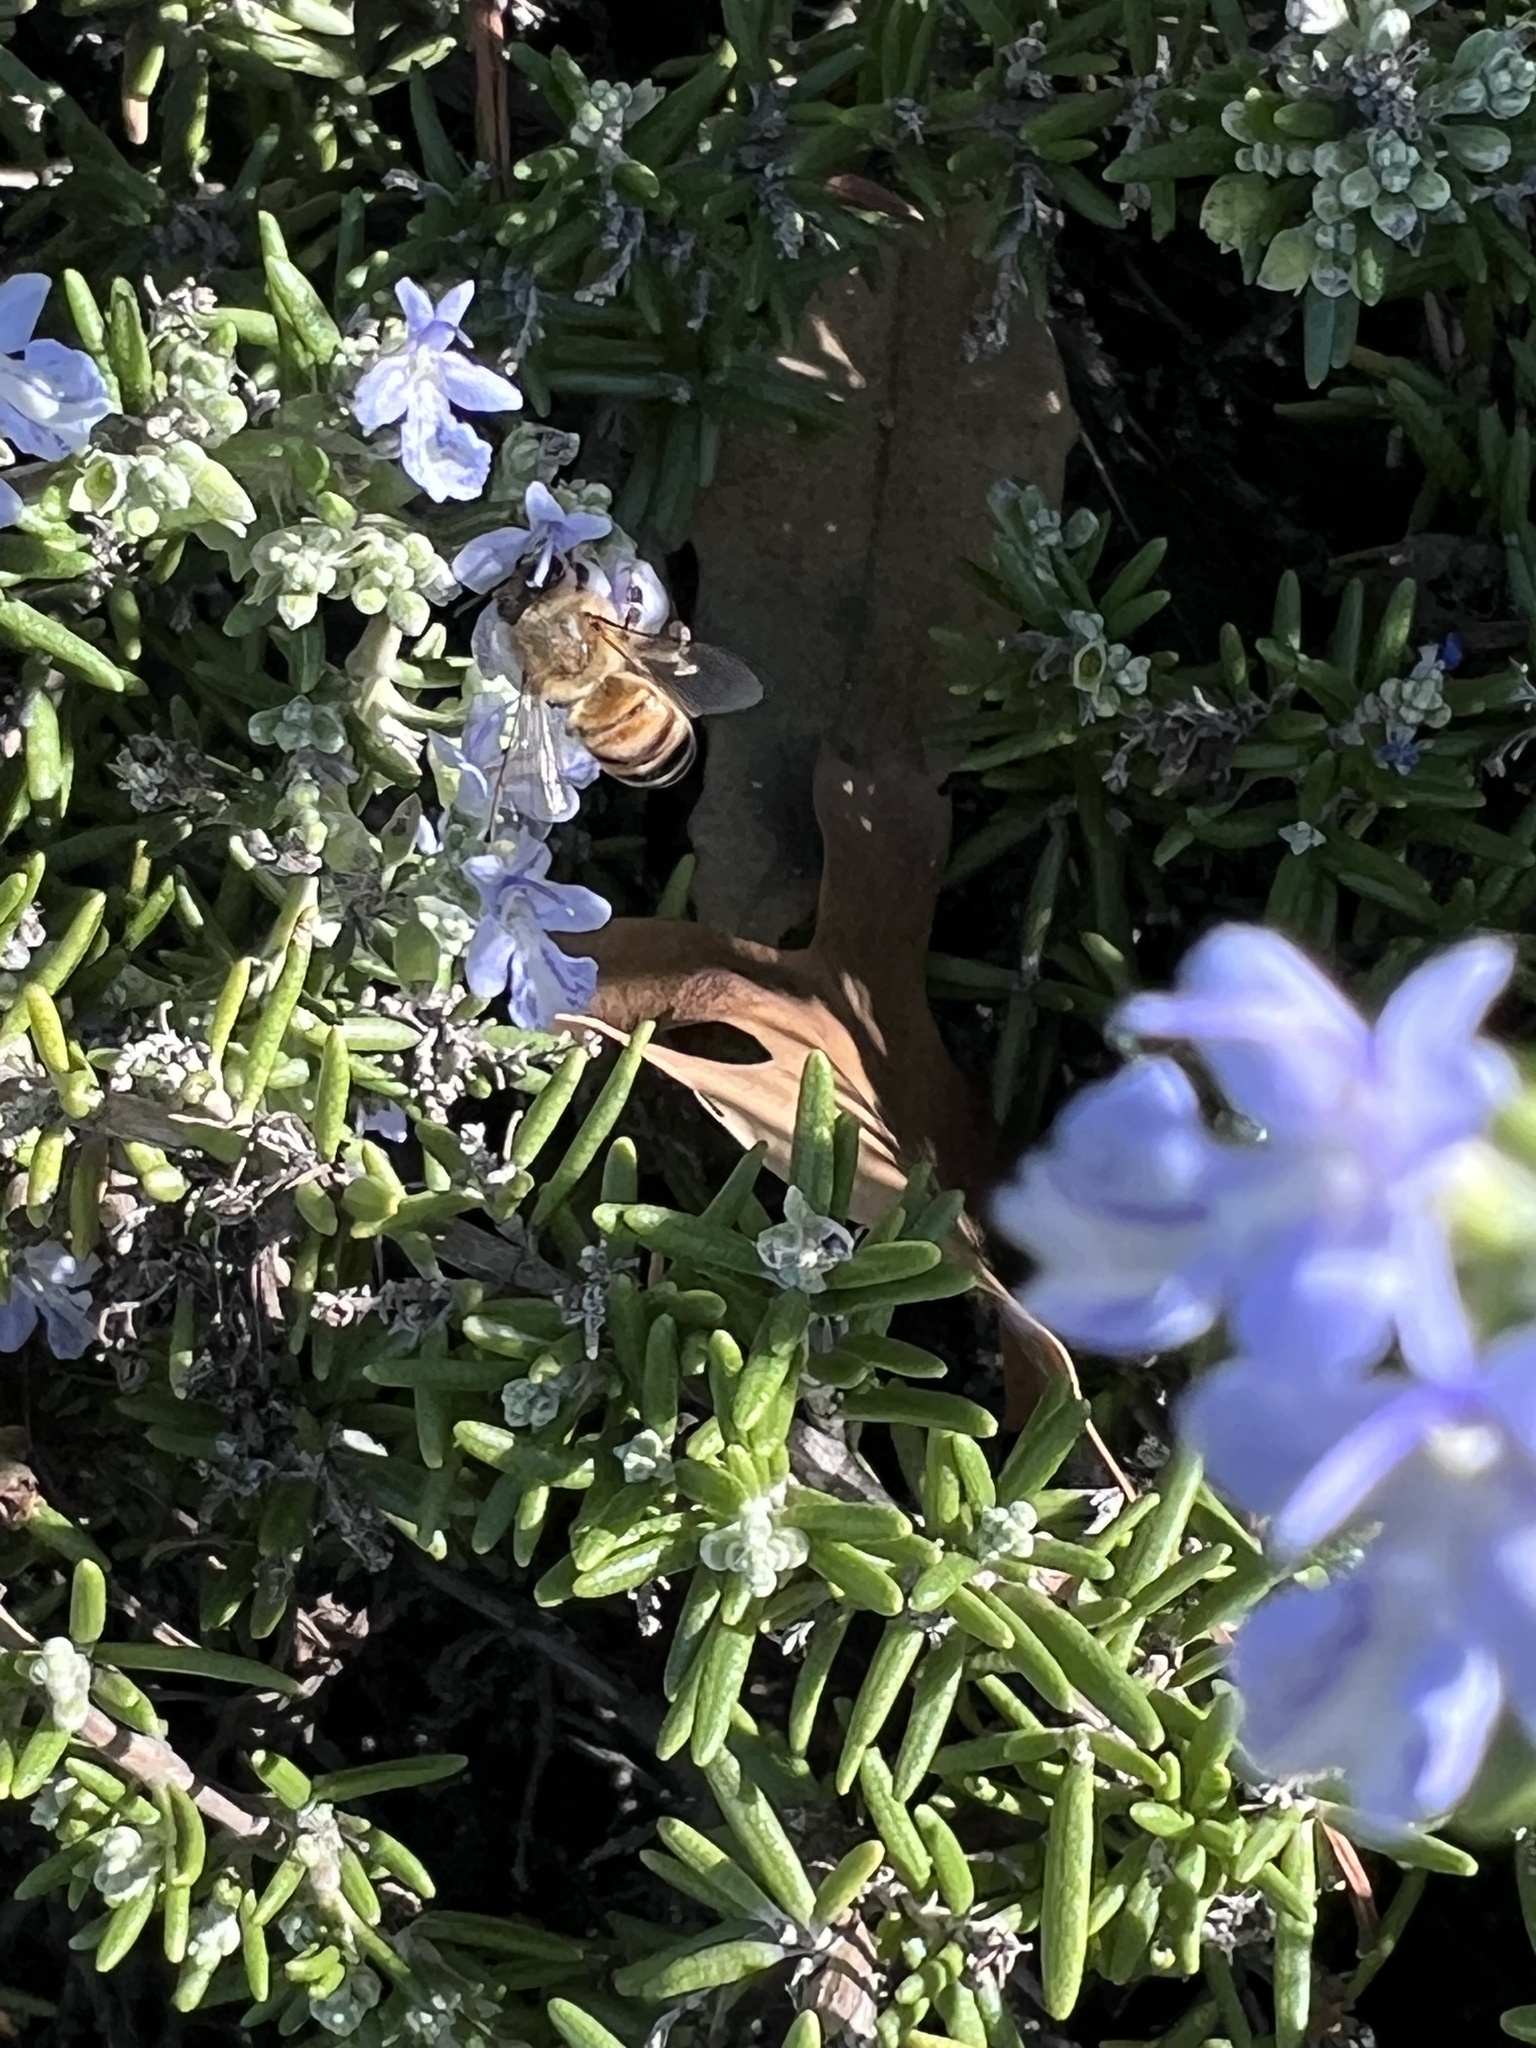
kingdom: Animalia
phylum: Arthropoda
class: Insecta
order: Hymenoptera
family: Apidae
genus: Apis
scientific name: Apis mellifera
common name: Honey bee
